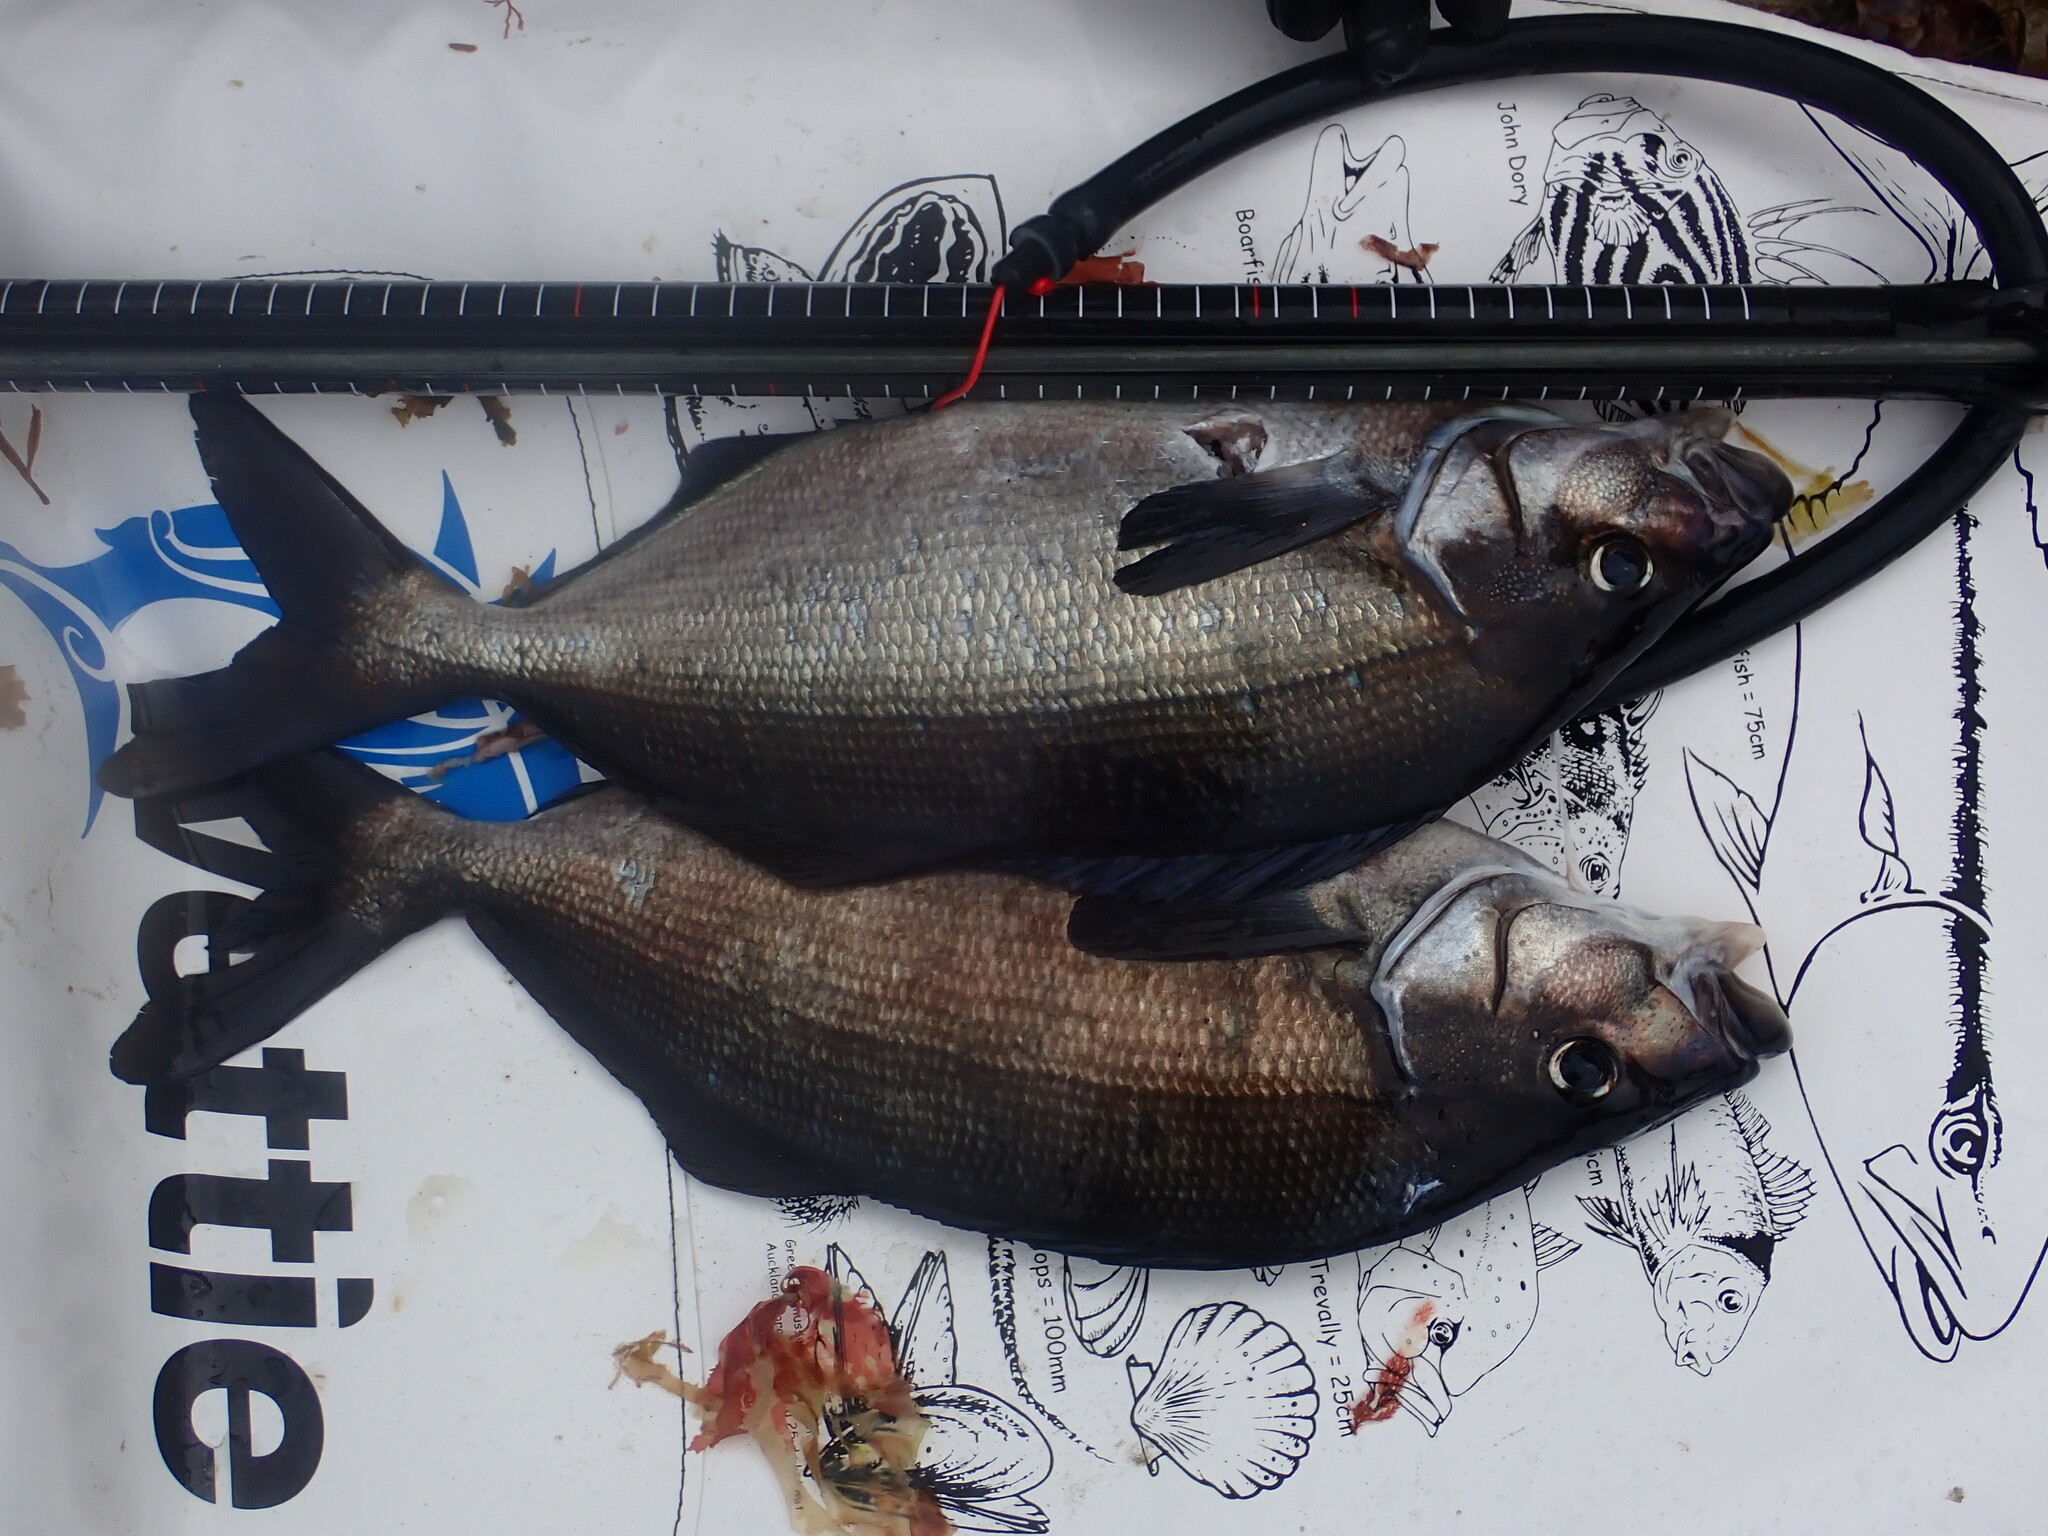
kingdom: Animalia
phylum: Chordata
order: Perciformes
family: Latridae
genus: Latridopsis
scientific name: Latridopsis ciliaris
